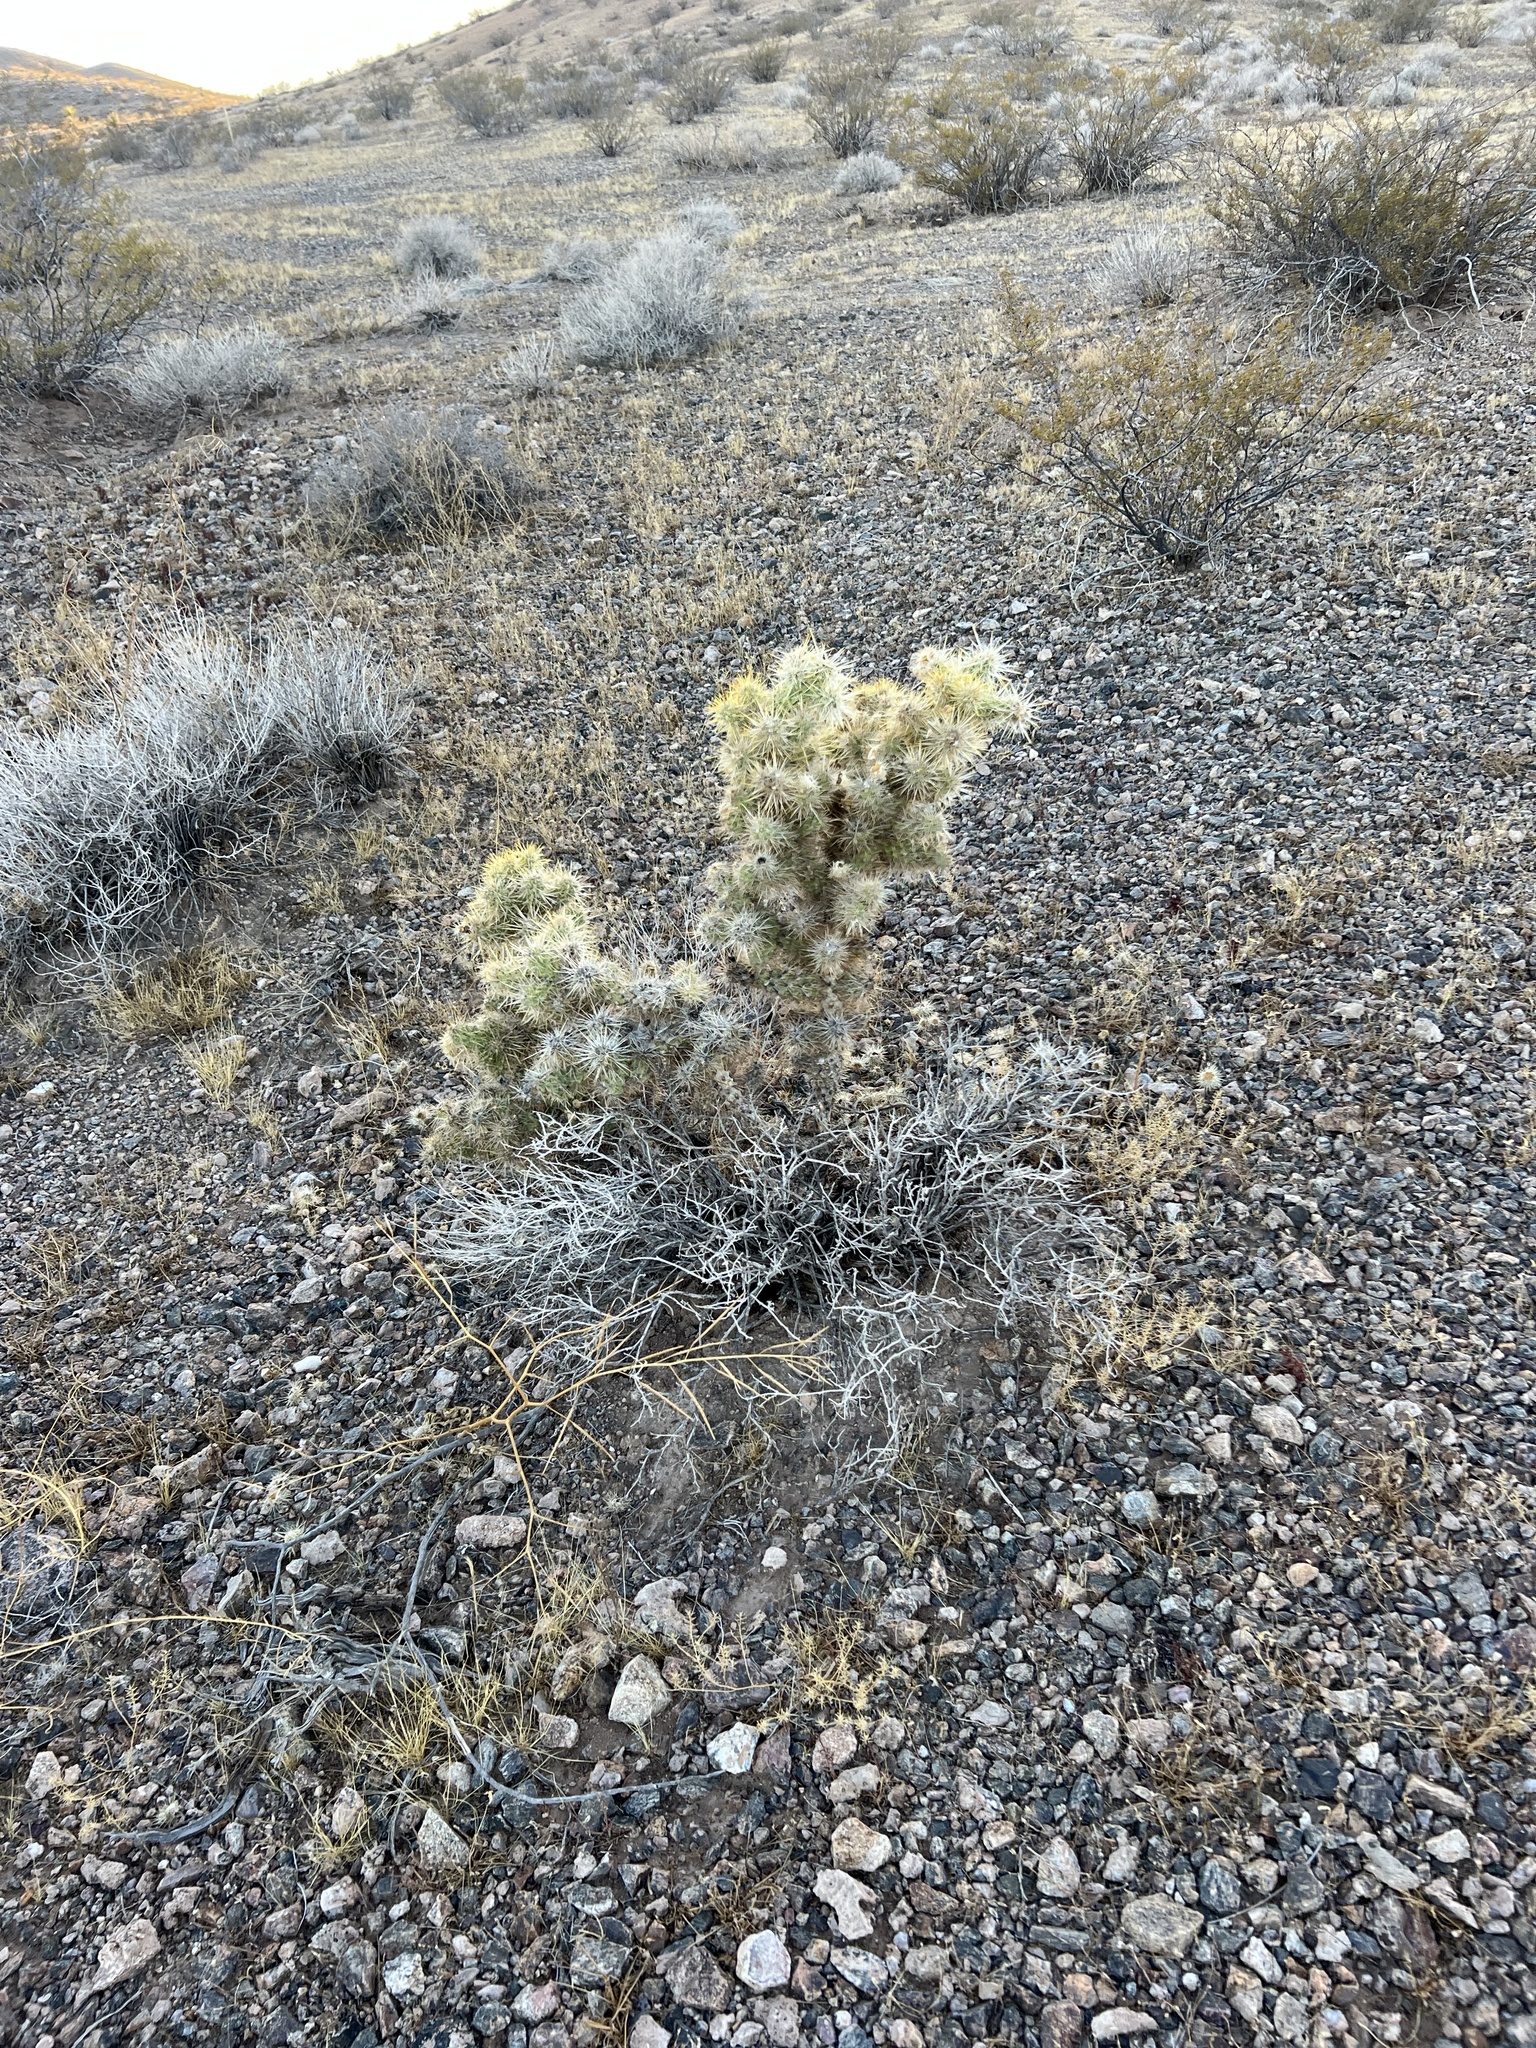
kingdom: Plantae
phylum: Tracheophyta
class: Magnoliopsida
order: Caryophyllales
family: Cactaceae
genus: Cylindropuntia
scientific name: Cylindropuntia echinocarpa
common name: Ground cholla
